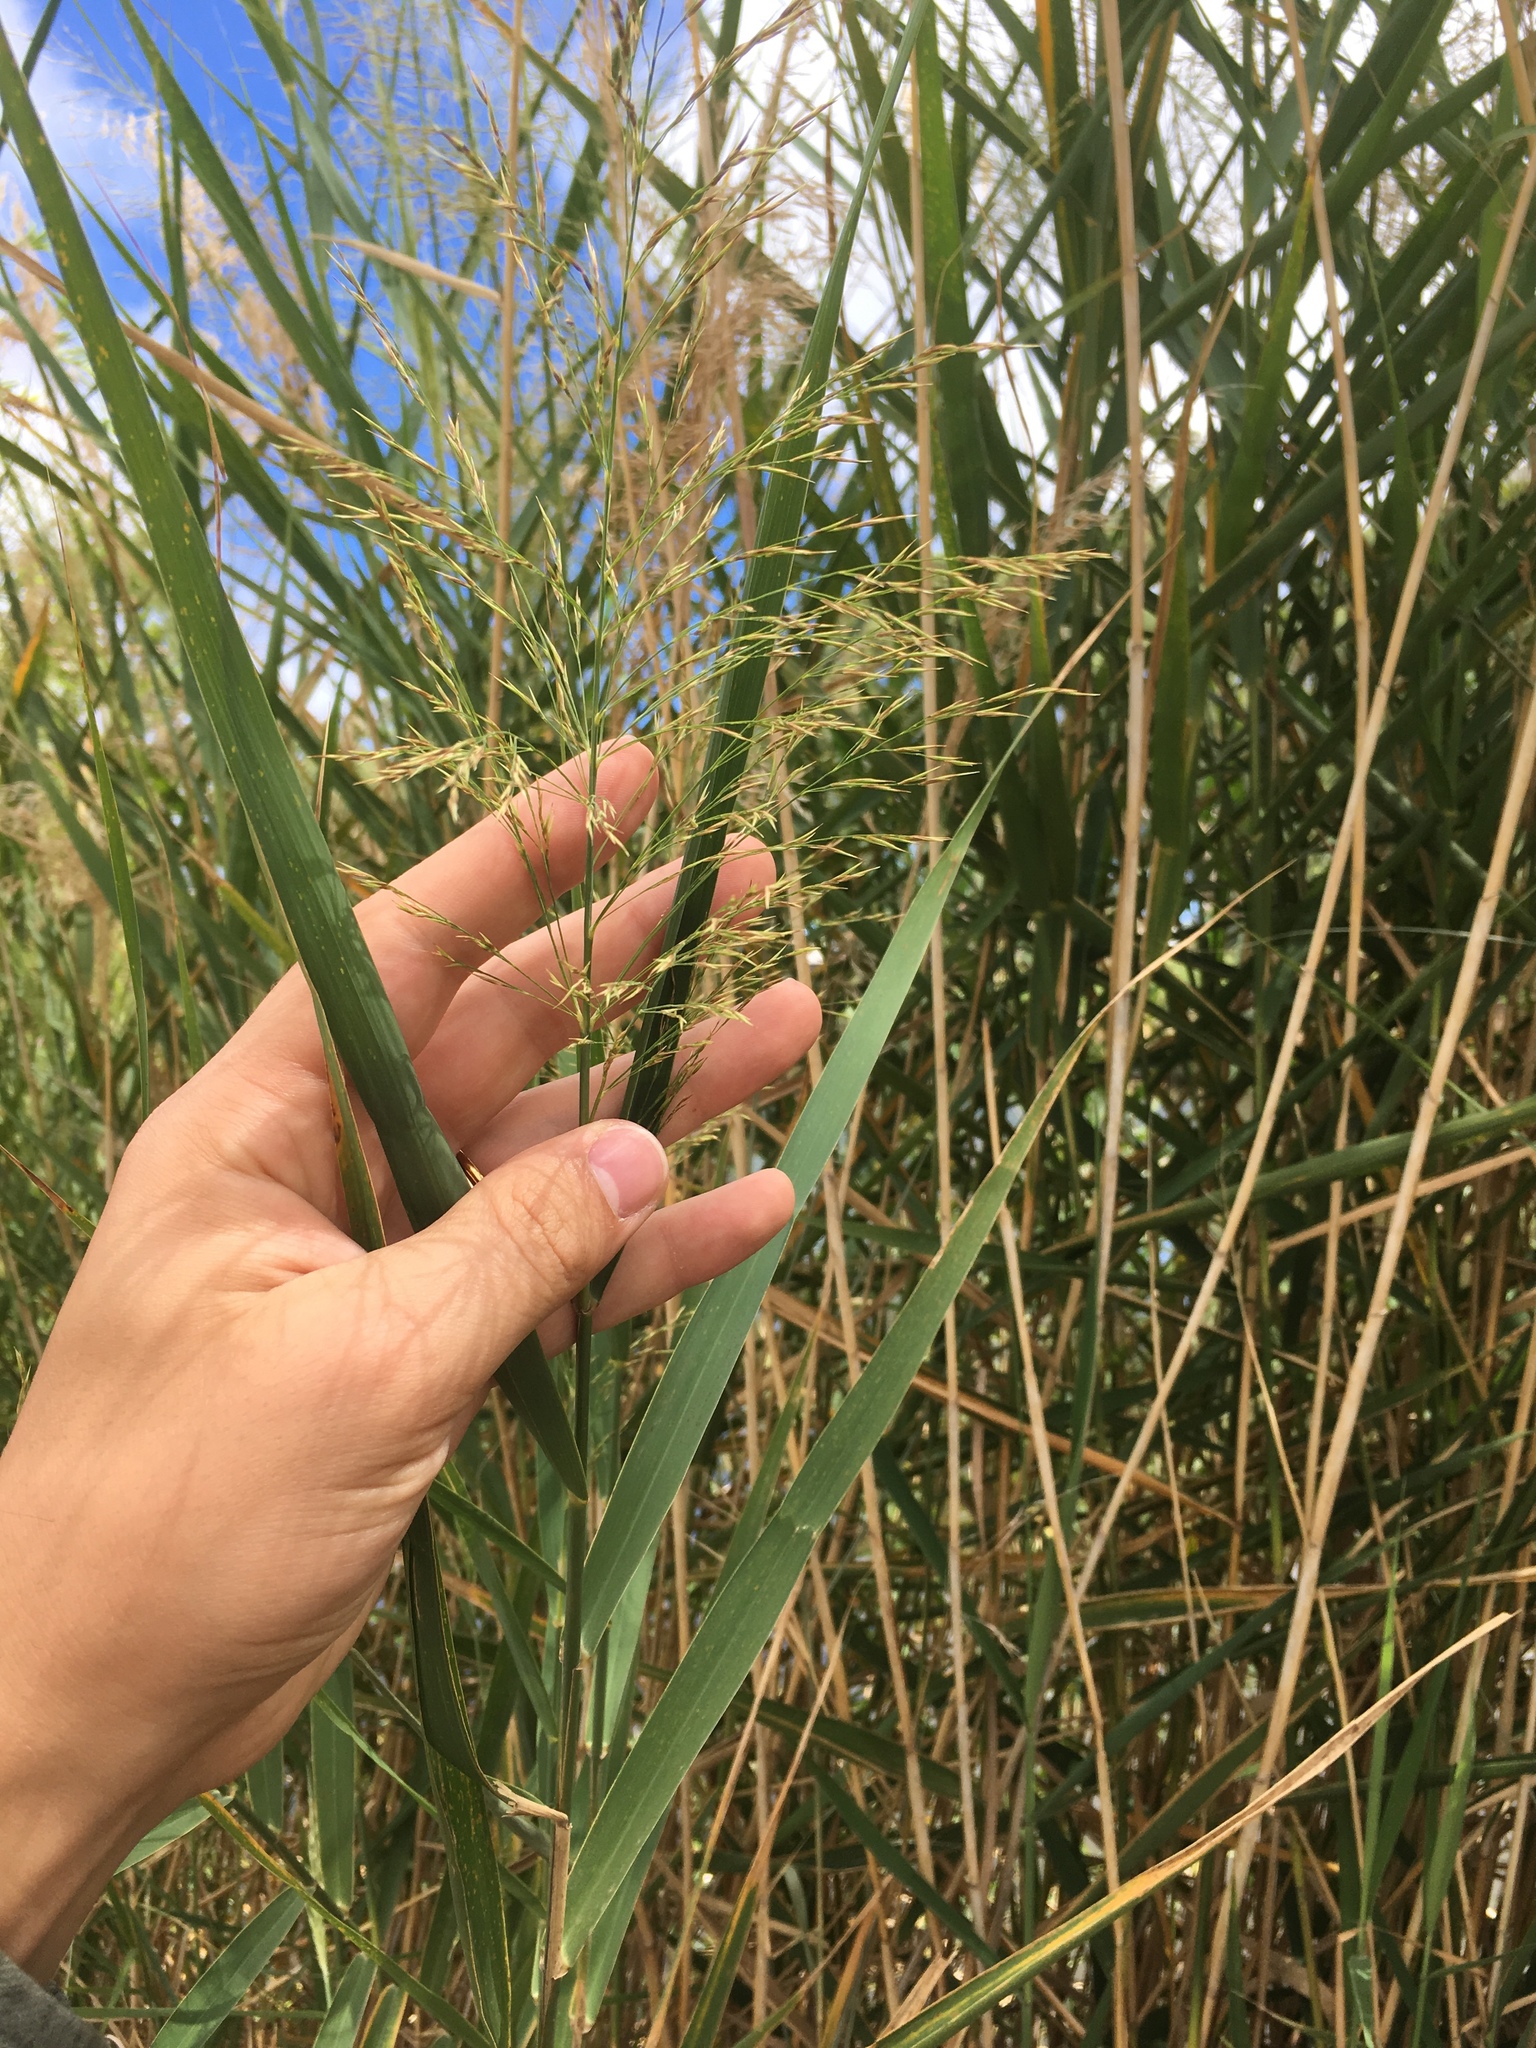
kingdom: Plantae
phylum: Tracheophyta
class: Liliopsida
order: Poales
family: Poaceae
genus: Phragmites
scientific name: Phragmites australis
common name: Common reed
